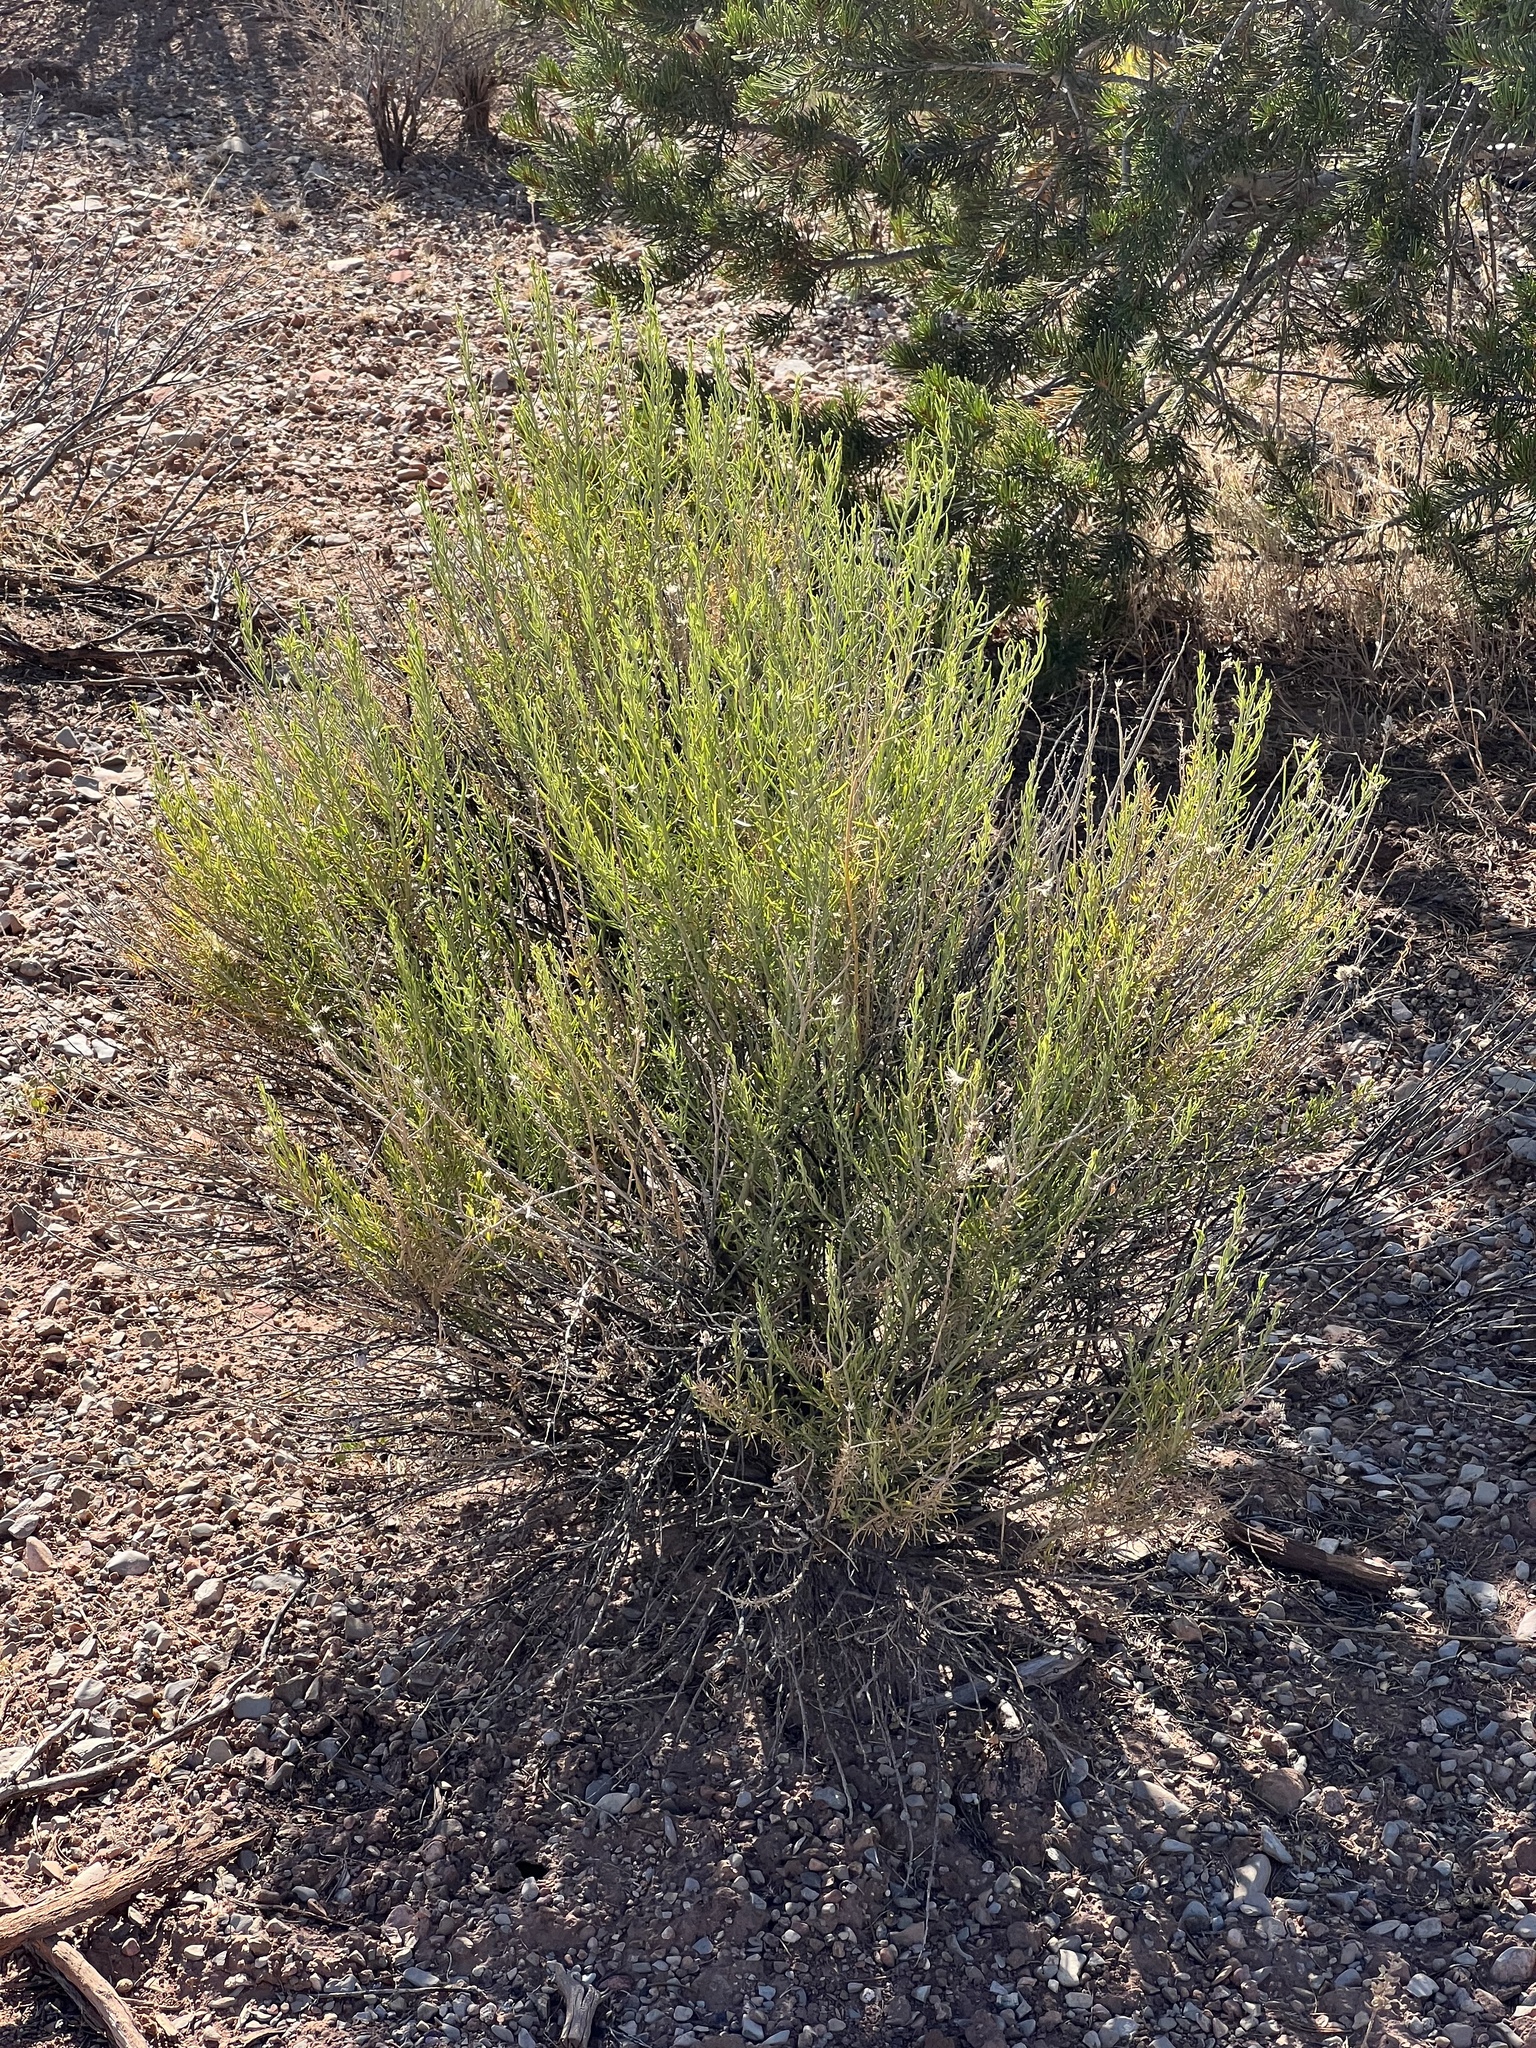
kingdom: Plantae
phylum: Tracheophyta
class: Magnoliopsida
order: Asterales
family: Asteraceae
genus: Ericameria
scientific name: Ericameria nauseosa
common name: Rubber rabbitbrush
